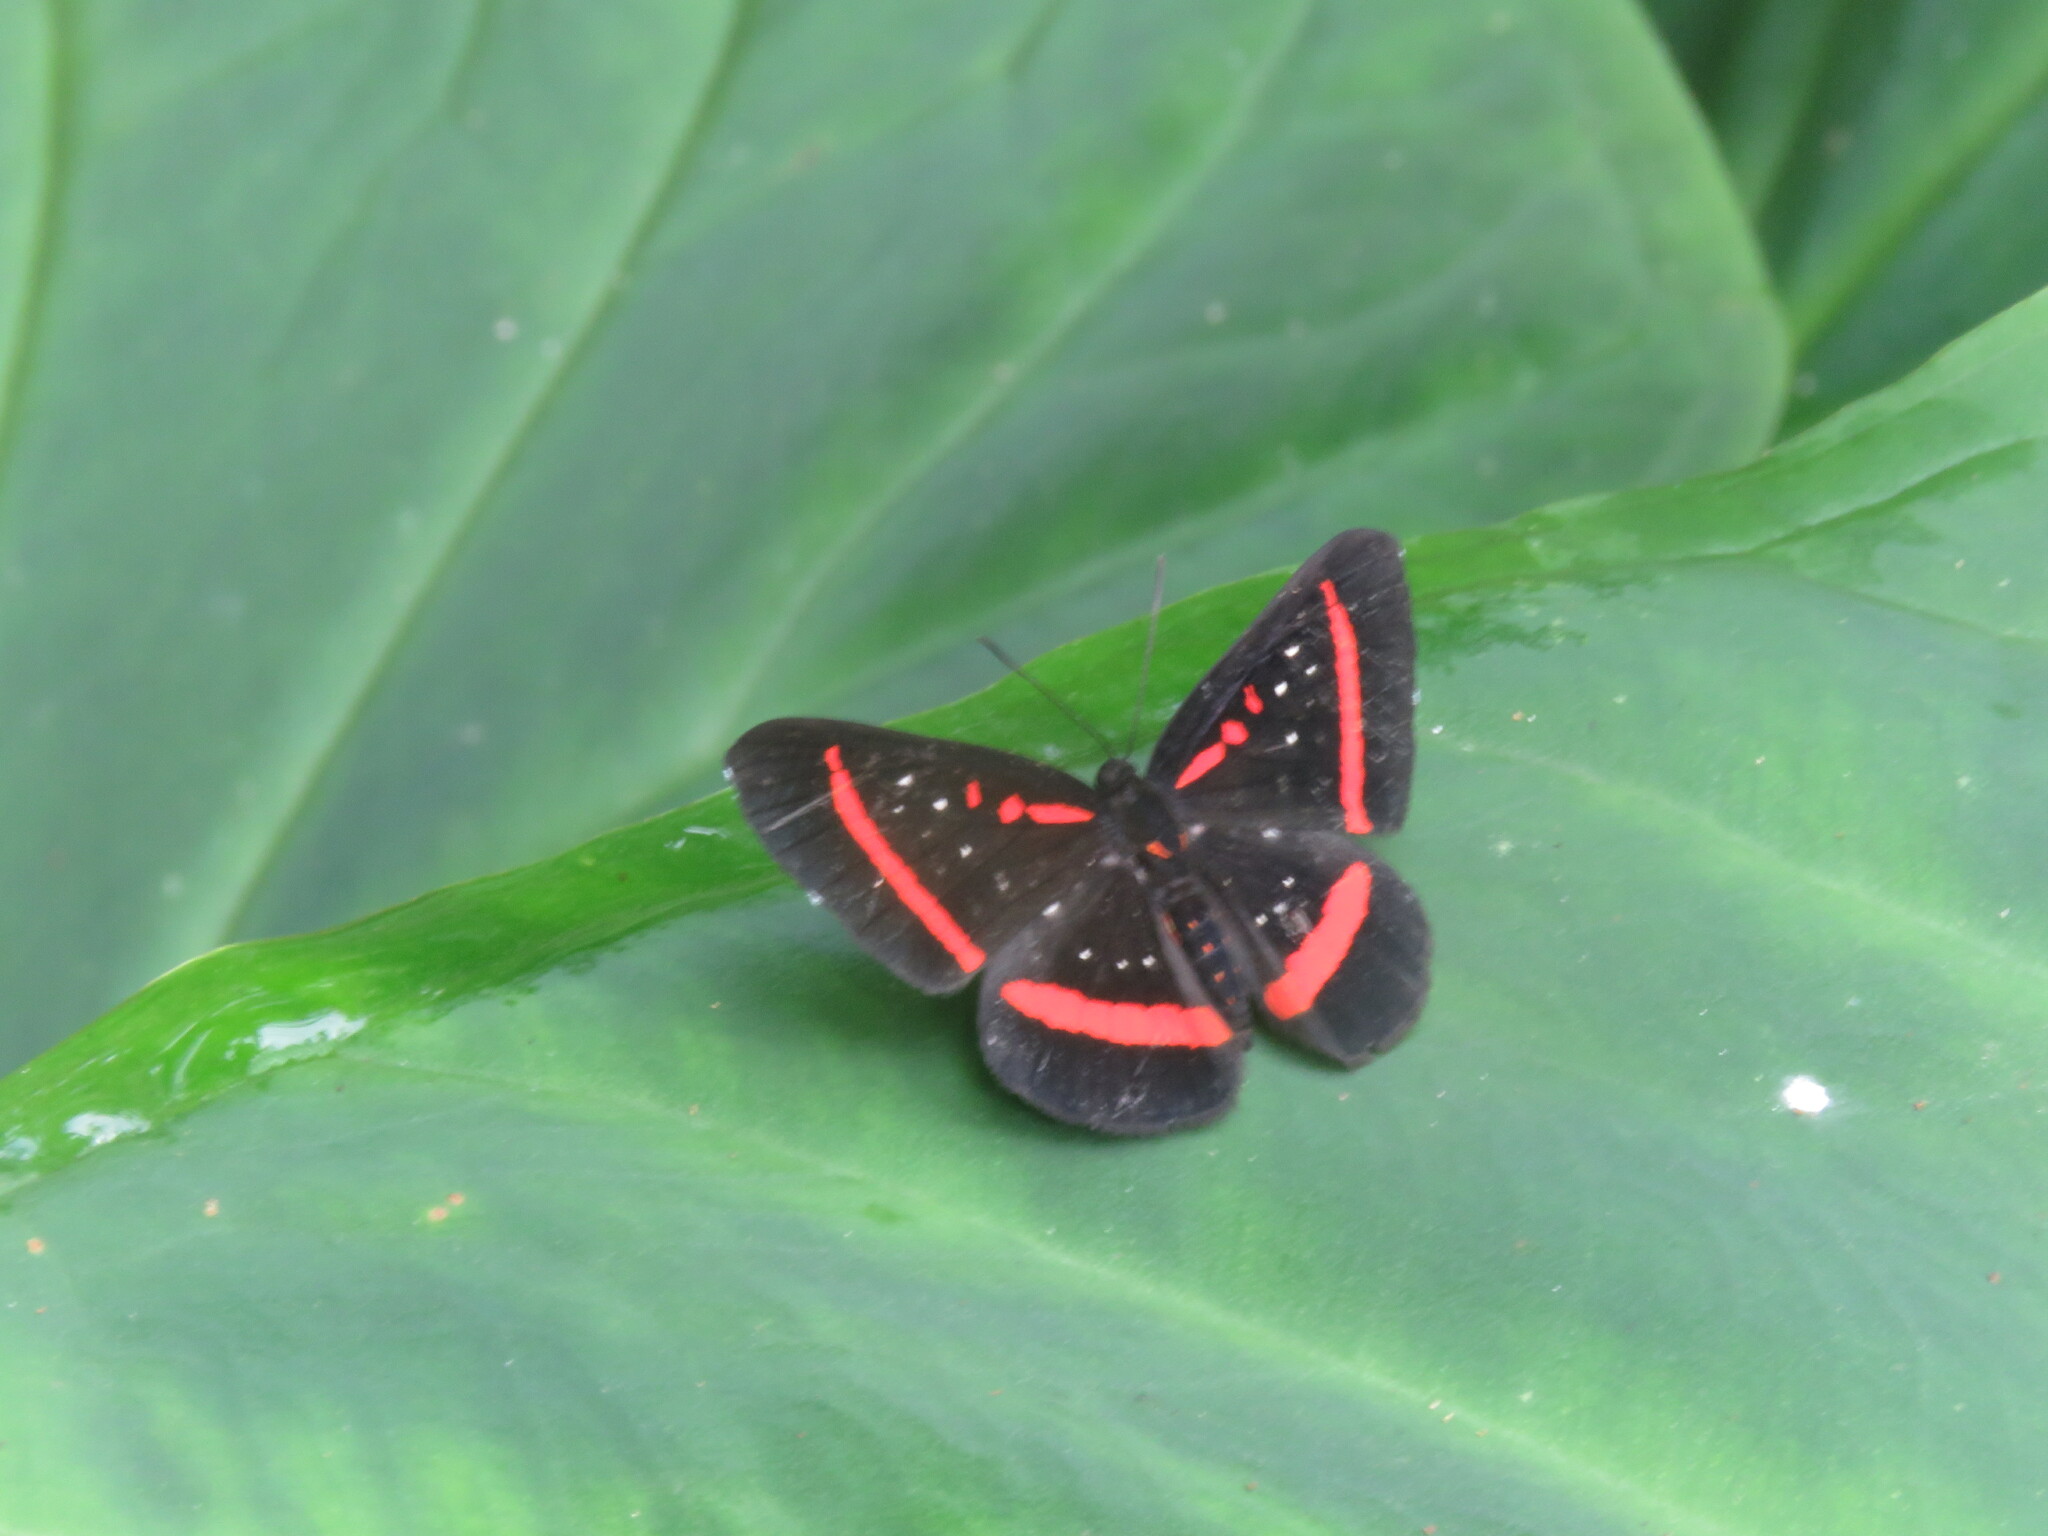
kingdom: Animalia
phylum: Arthropoda
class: Insecta
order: Lepidoptera
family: Riodinidae
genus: Amarynthis
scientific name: Amarynthis meneria
